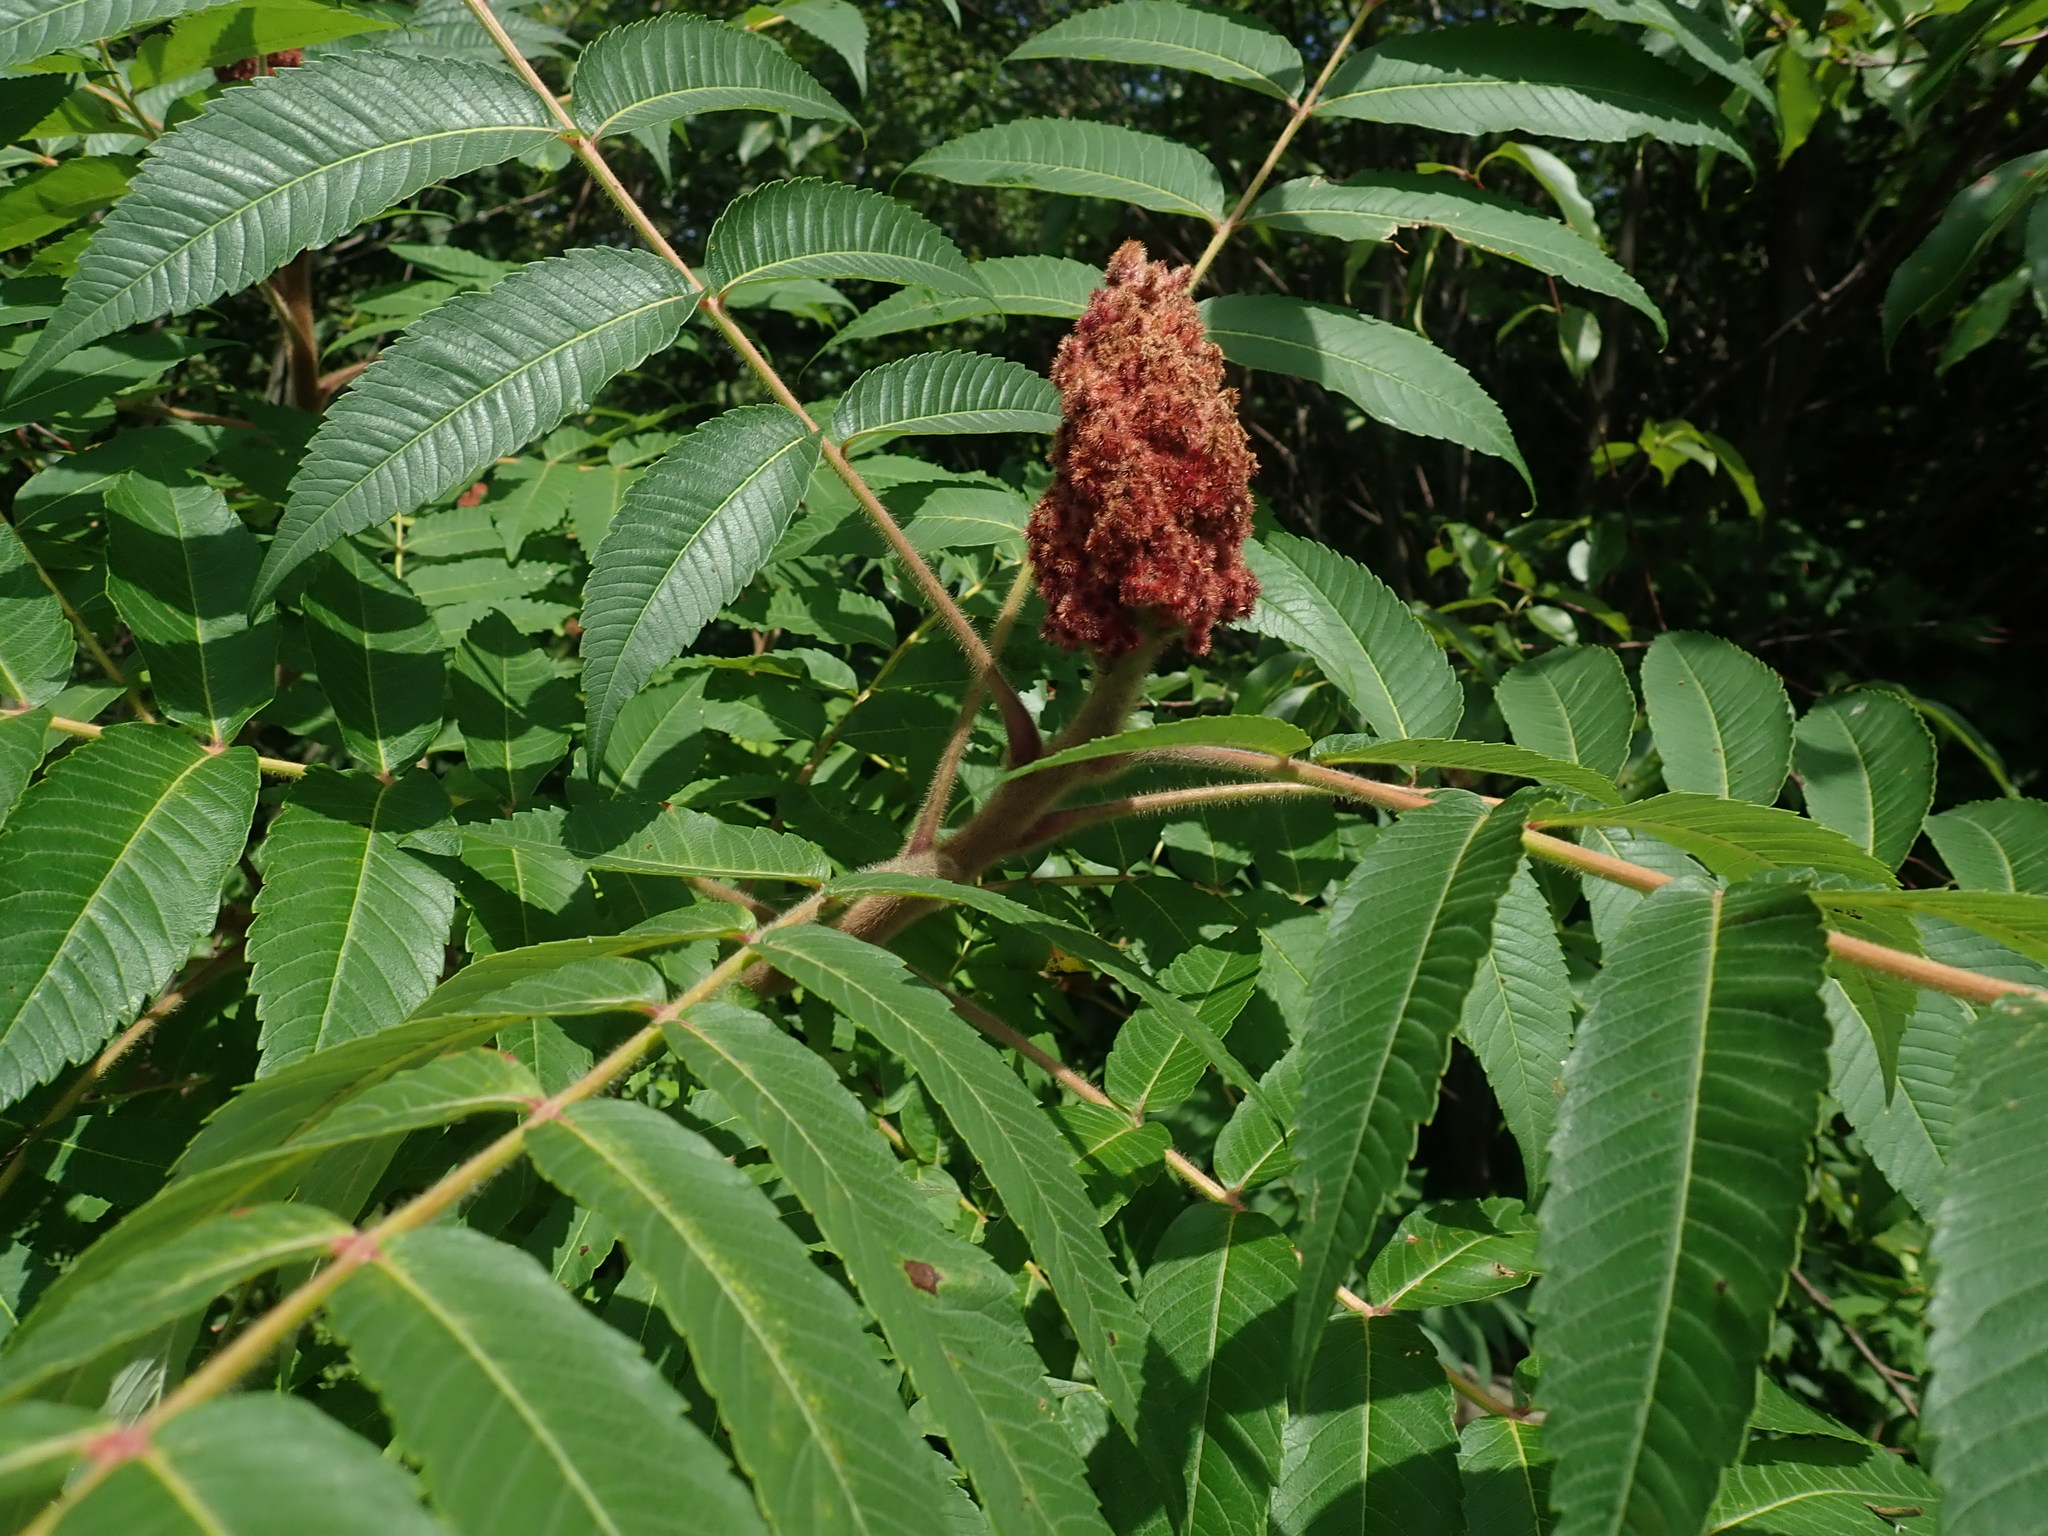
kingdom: Plantae
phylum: Tracheophyta
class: Magnoliopsida
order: Sapindales
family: Anacardiaceae
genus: Rhus
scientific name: Rhus typhina
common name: Staghorn sumac
